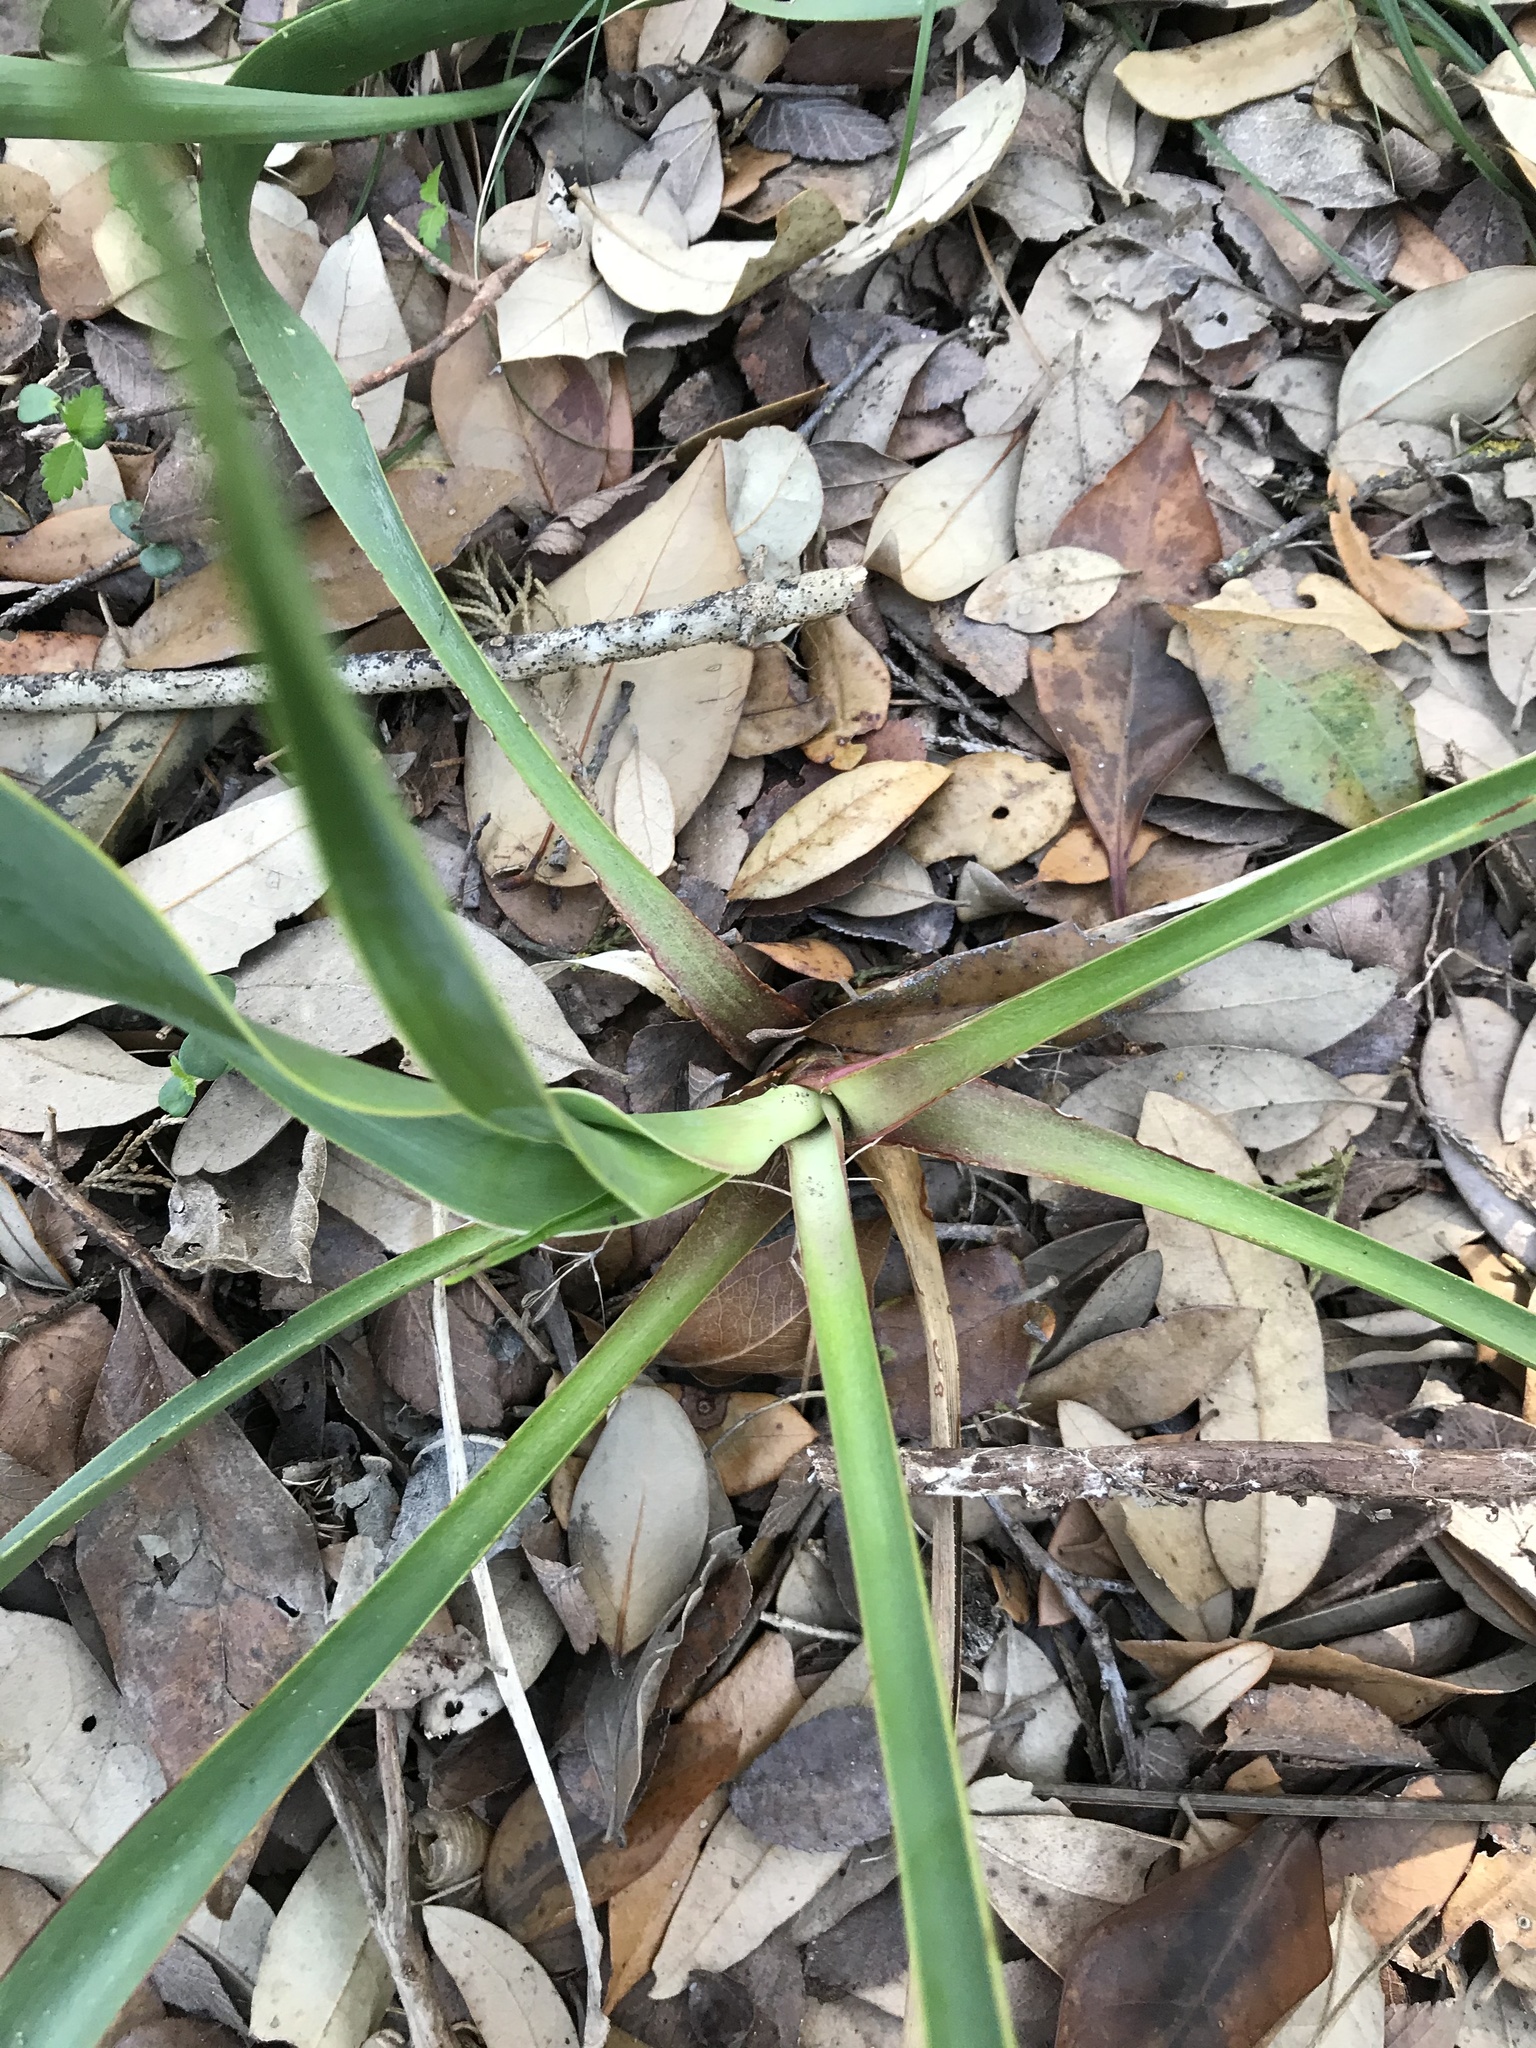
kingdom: Plantae
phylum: Tracheophyta
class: Liliopsida
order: Asparagales
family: Asparagaceae
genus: Yucca
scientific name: Yucca rupicola
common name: Twisted-leaf spanish-dagger
